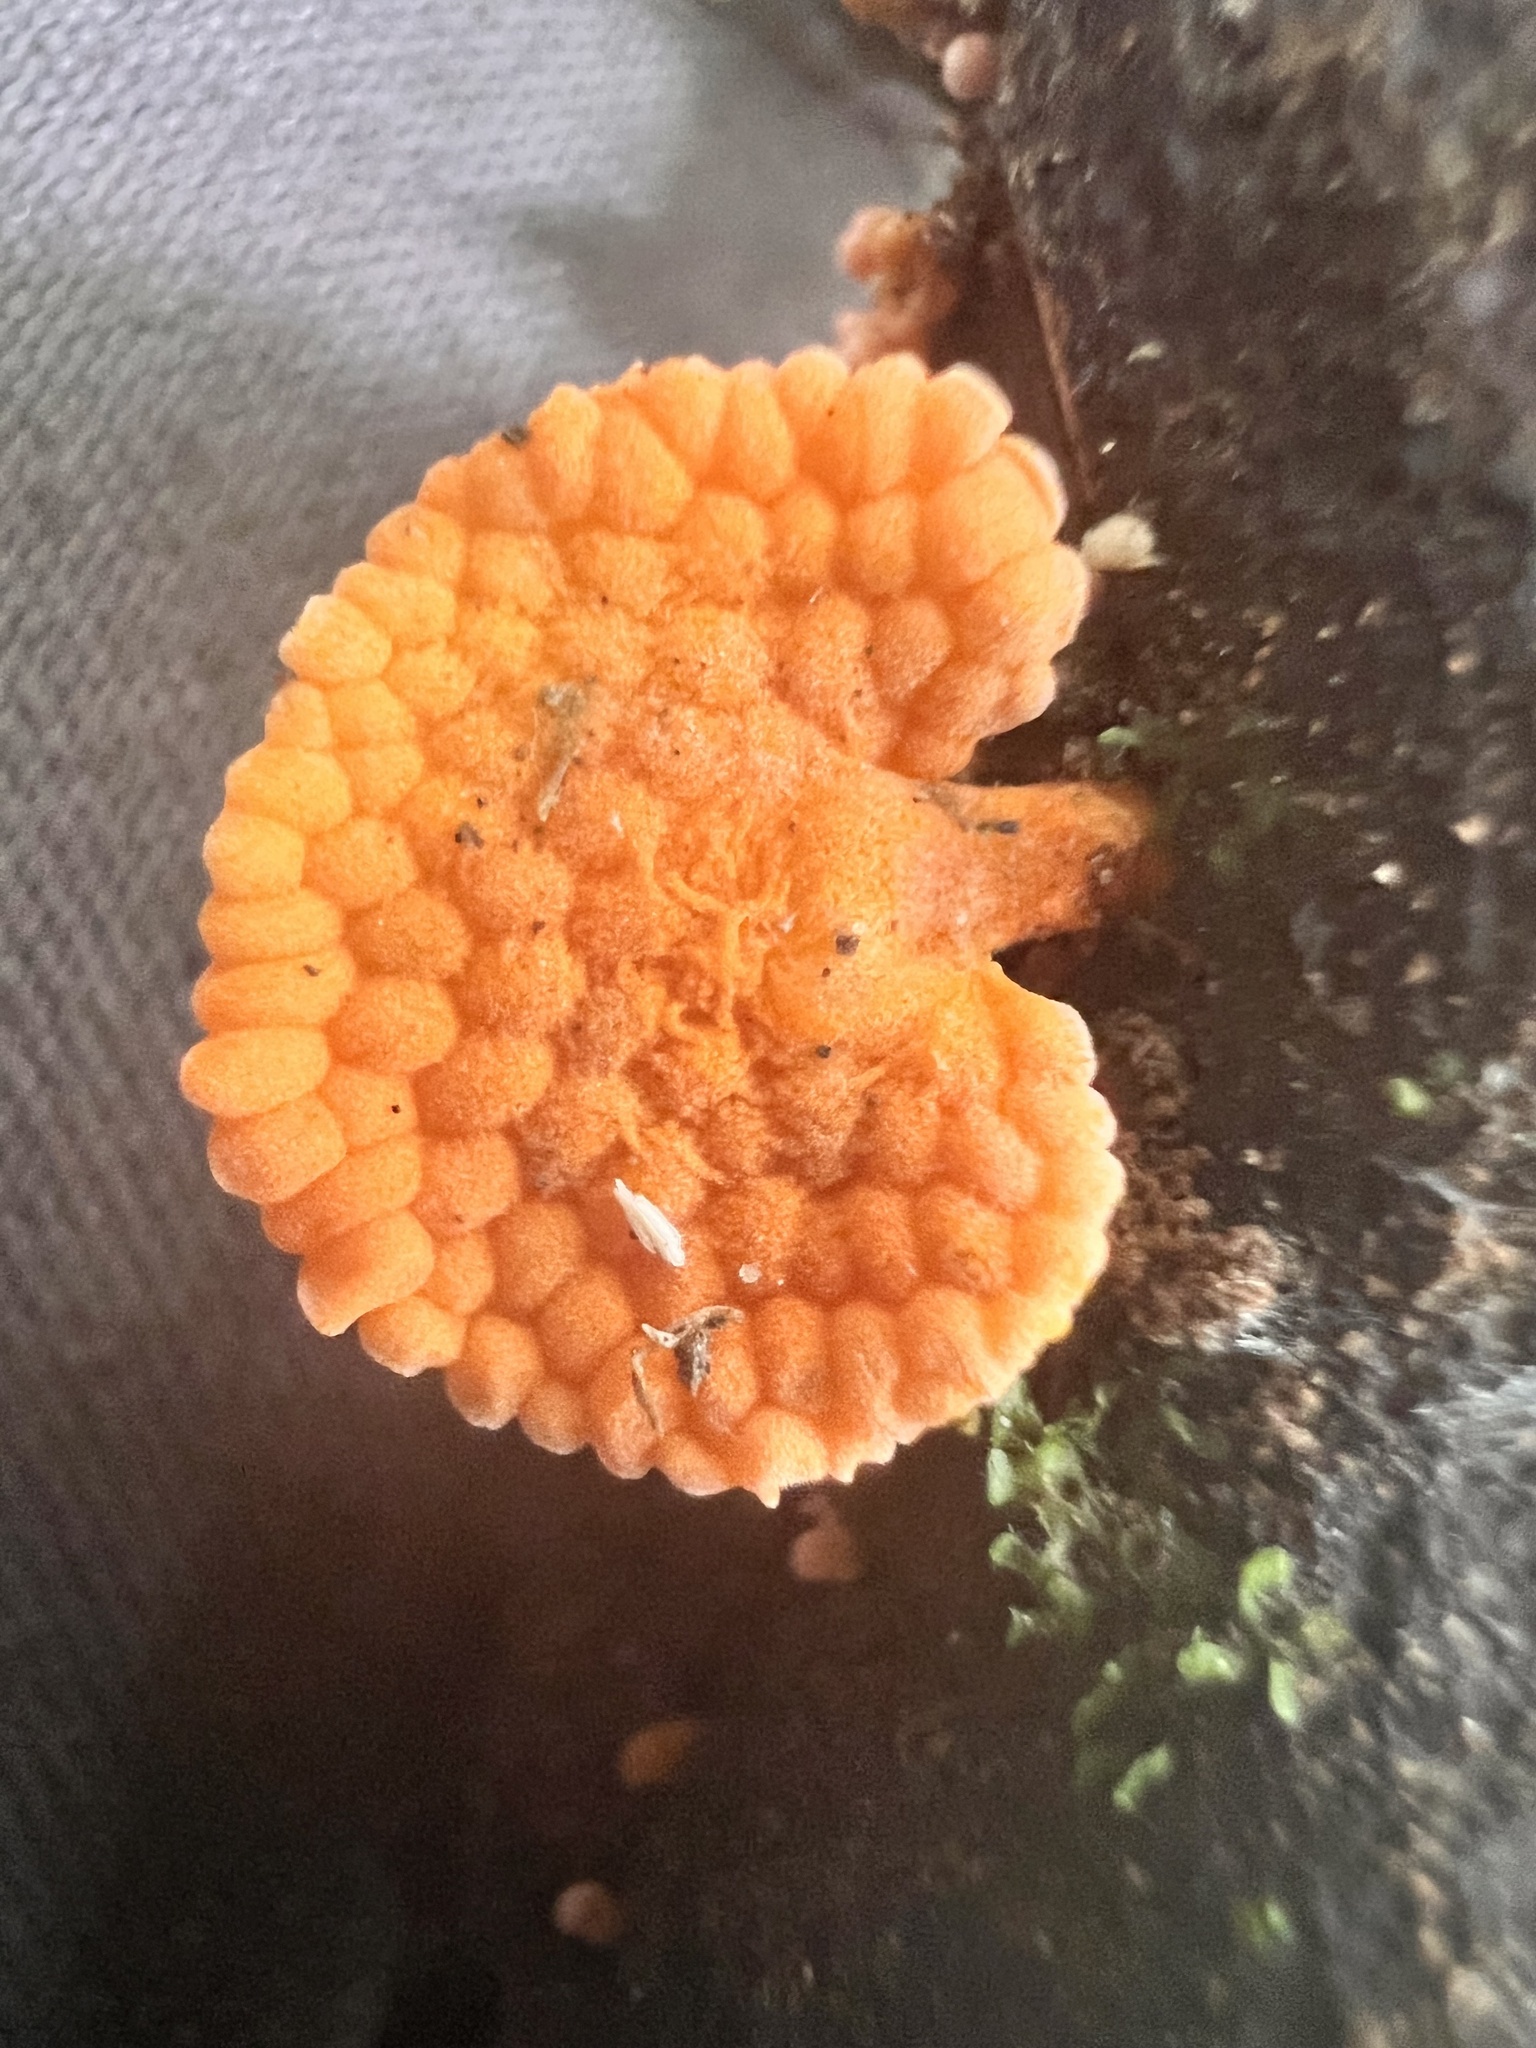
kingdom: Fungi
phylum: Basidiomycota
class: Agaricomycetes
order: Agaricales
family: Mycenaceae
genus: Favolaschia
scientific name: Favolaschia claudopus
